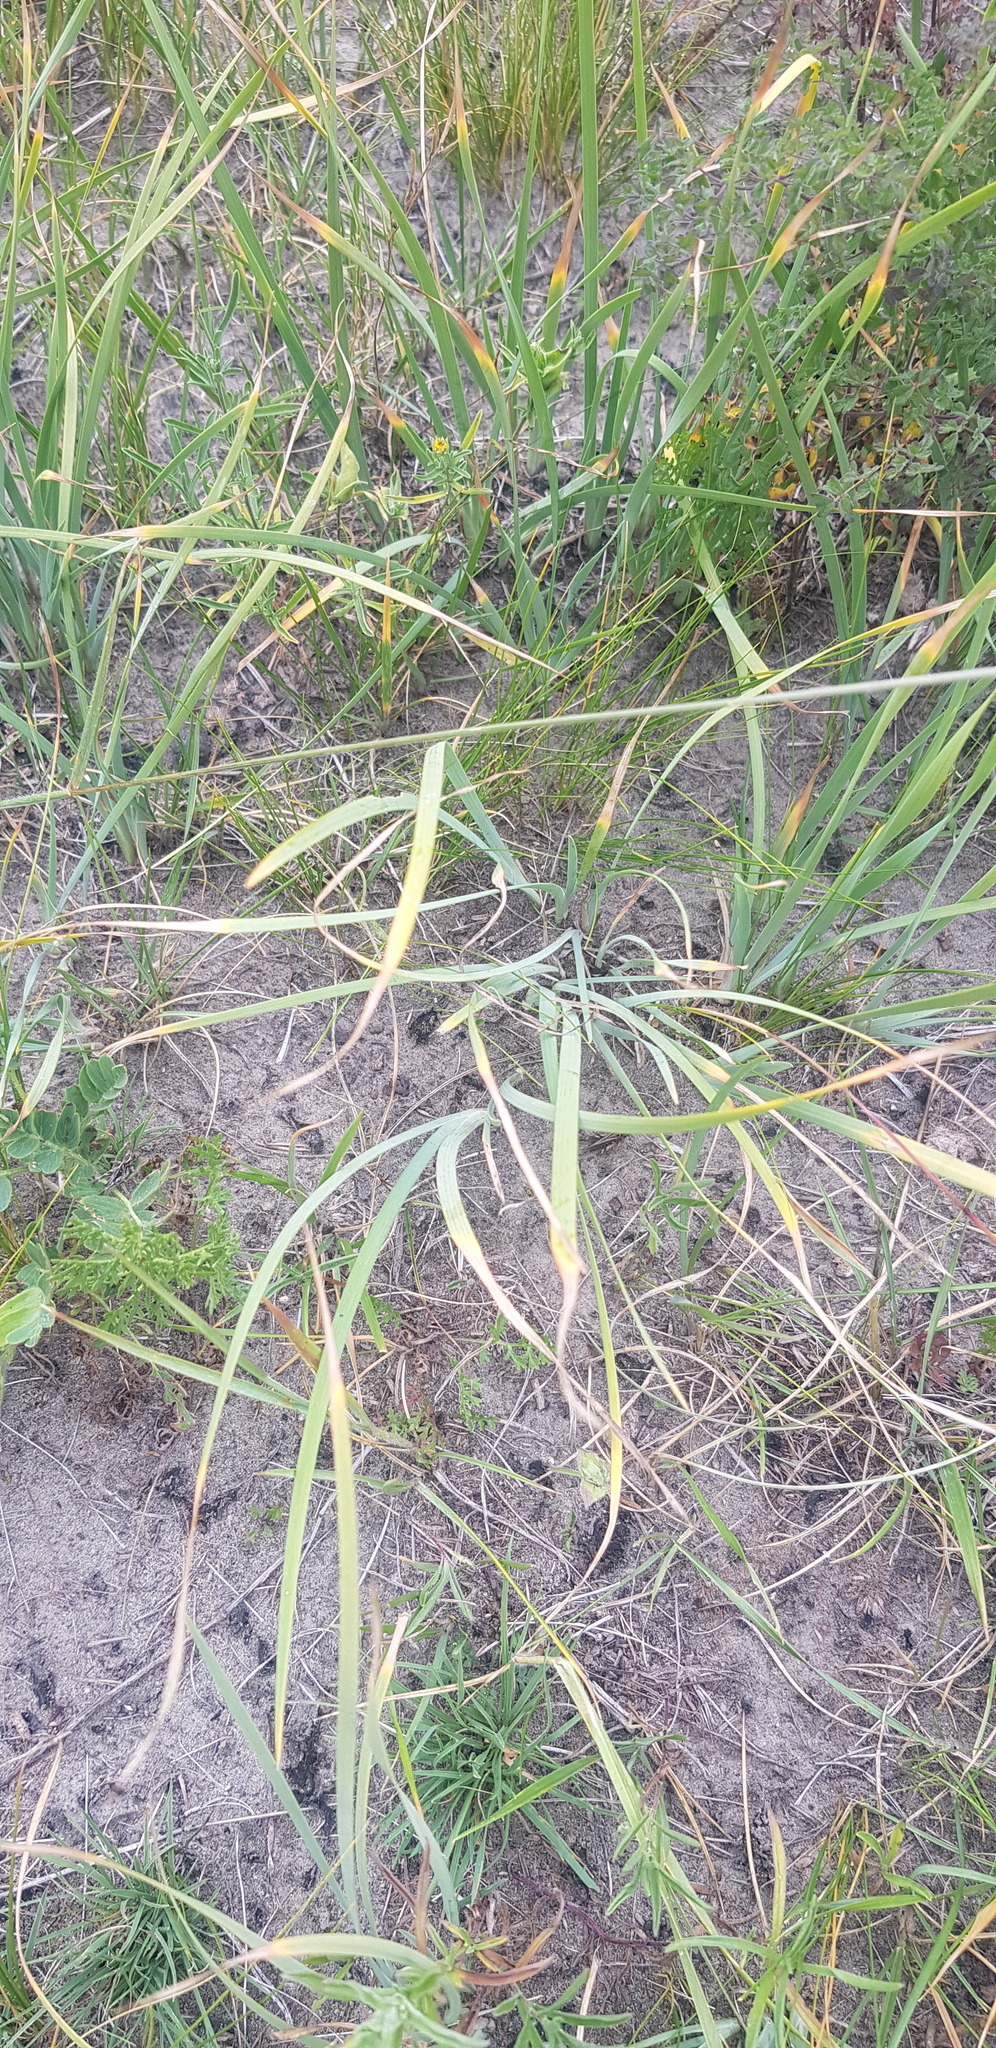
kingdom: Plantae
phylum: Tracheophyta
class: Liliopsida
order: Asparagales
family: Iridaceae
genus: Iris
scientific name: Iris humilis
